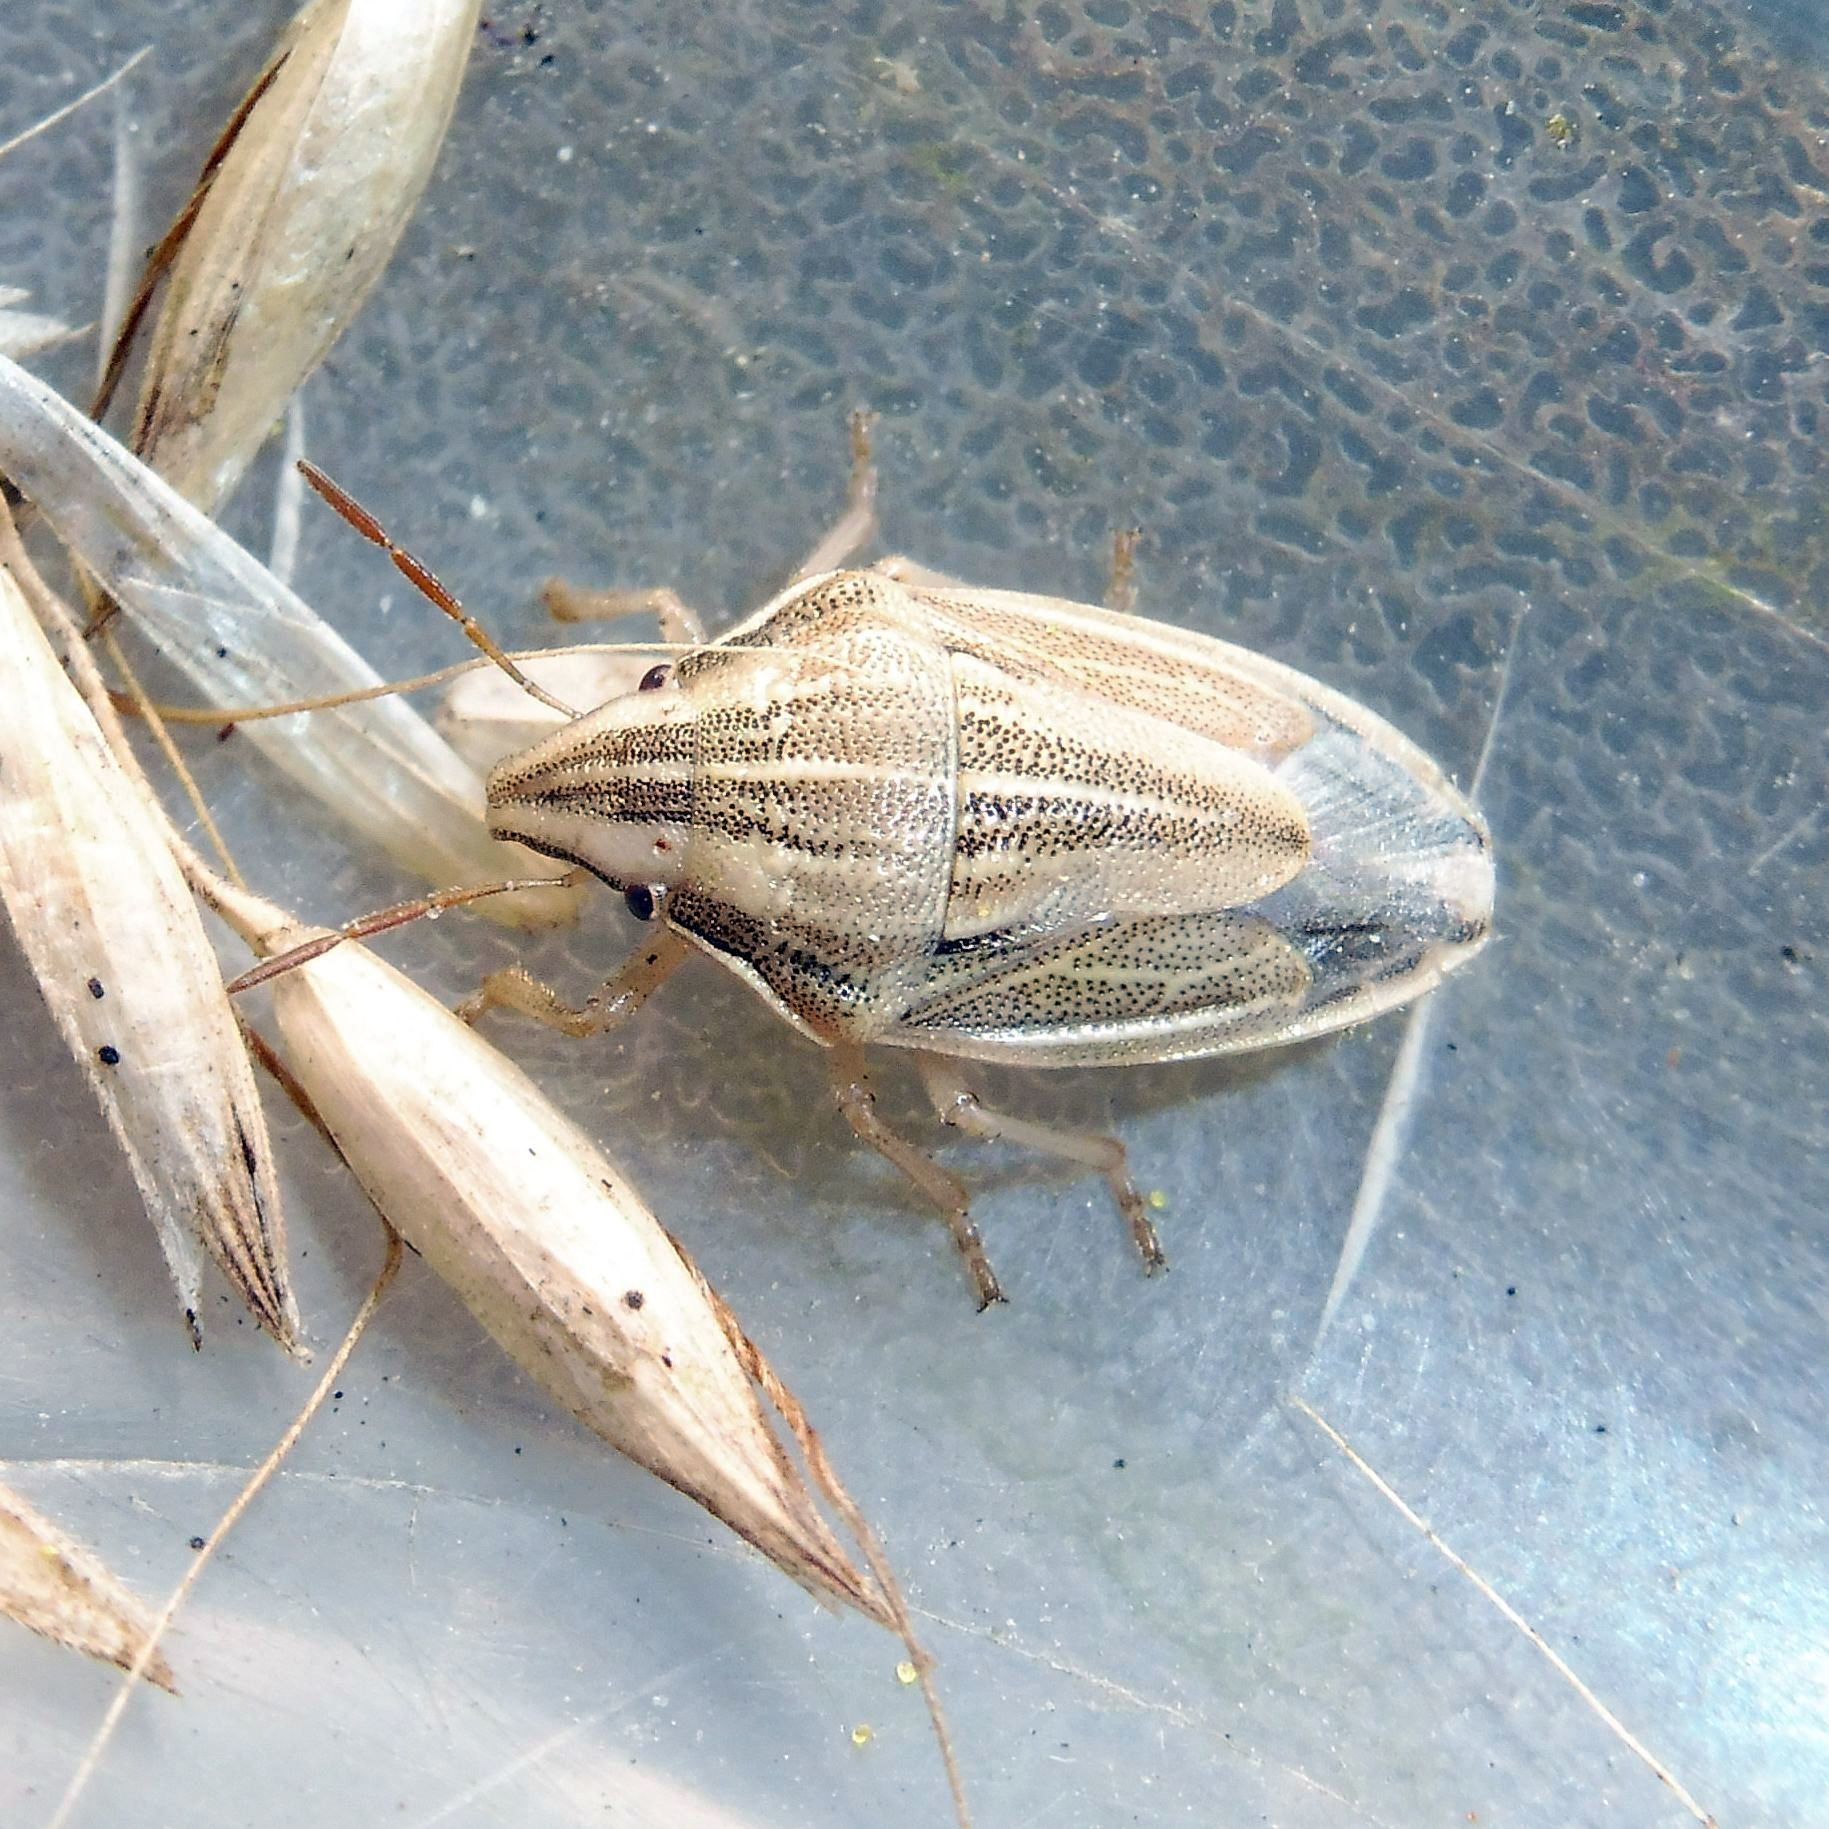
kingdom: Animalia
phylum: Arthropoda
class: Insecta
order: Hemiptera
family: Pentatomidae
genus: Aelia
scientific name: Aelia acuminata
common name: Bishop's mitre
